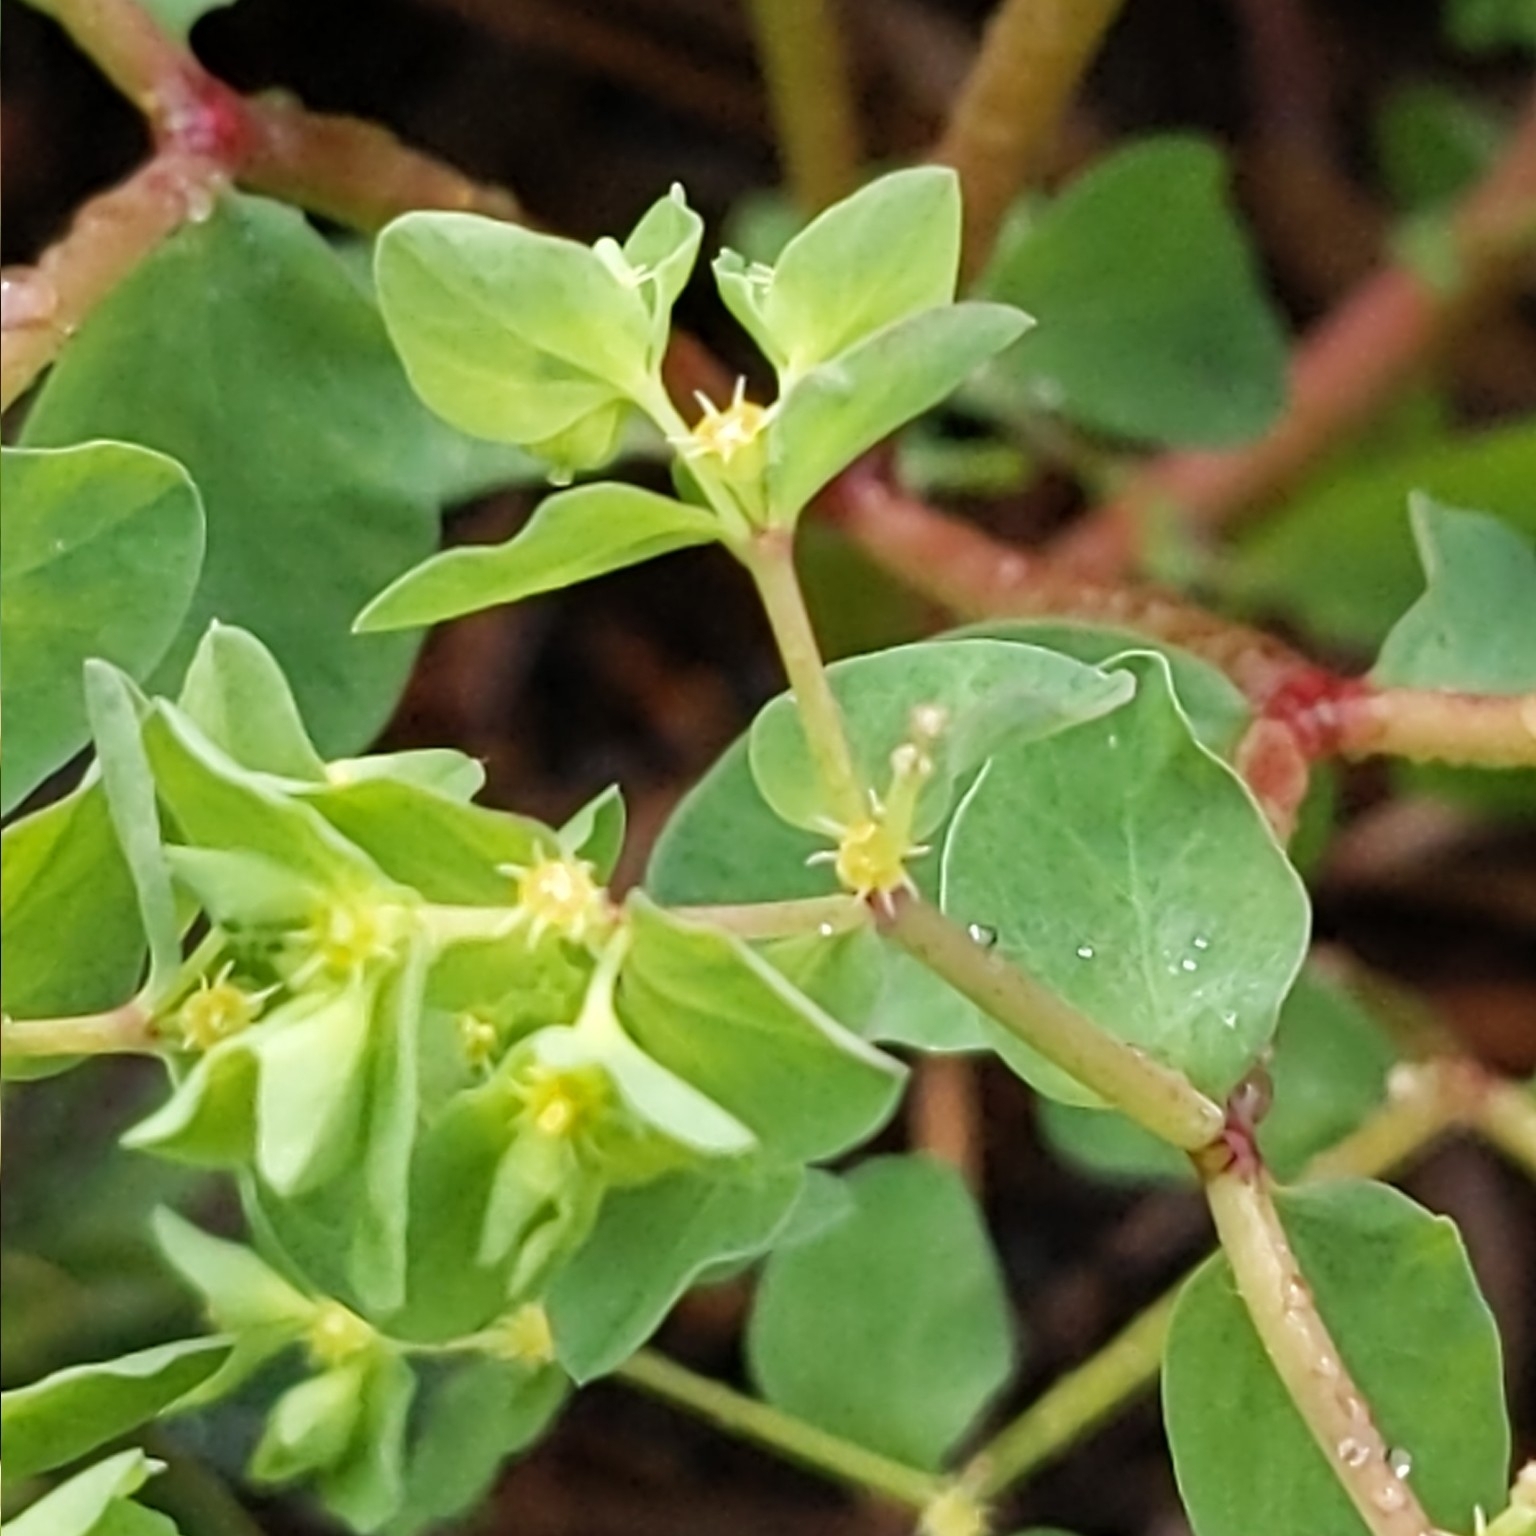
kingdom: Plantae
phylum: Tracheophyta
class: Magnoliopsida
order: Malpighiales
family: Euphorbiaceae
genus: Euphorbia
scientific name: Euphorbia peplus
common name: Petty spurge
